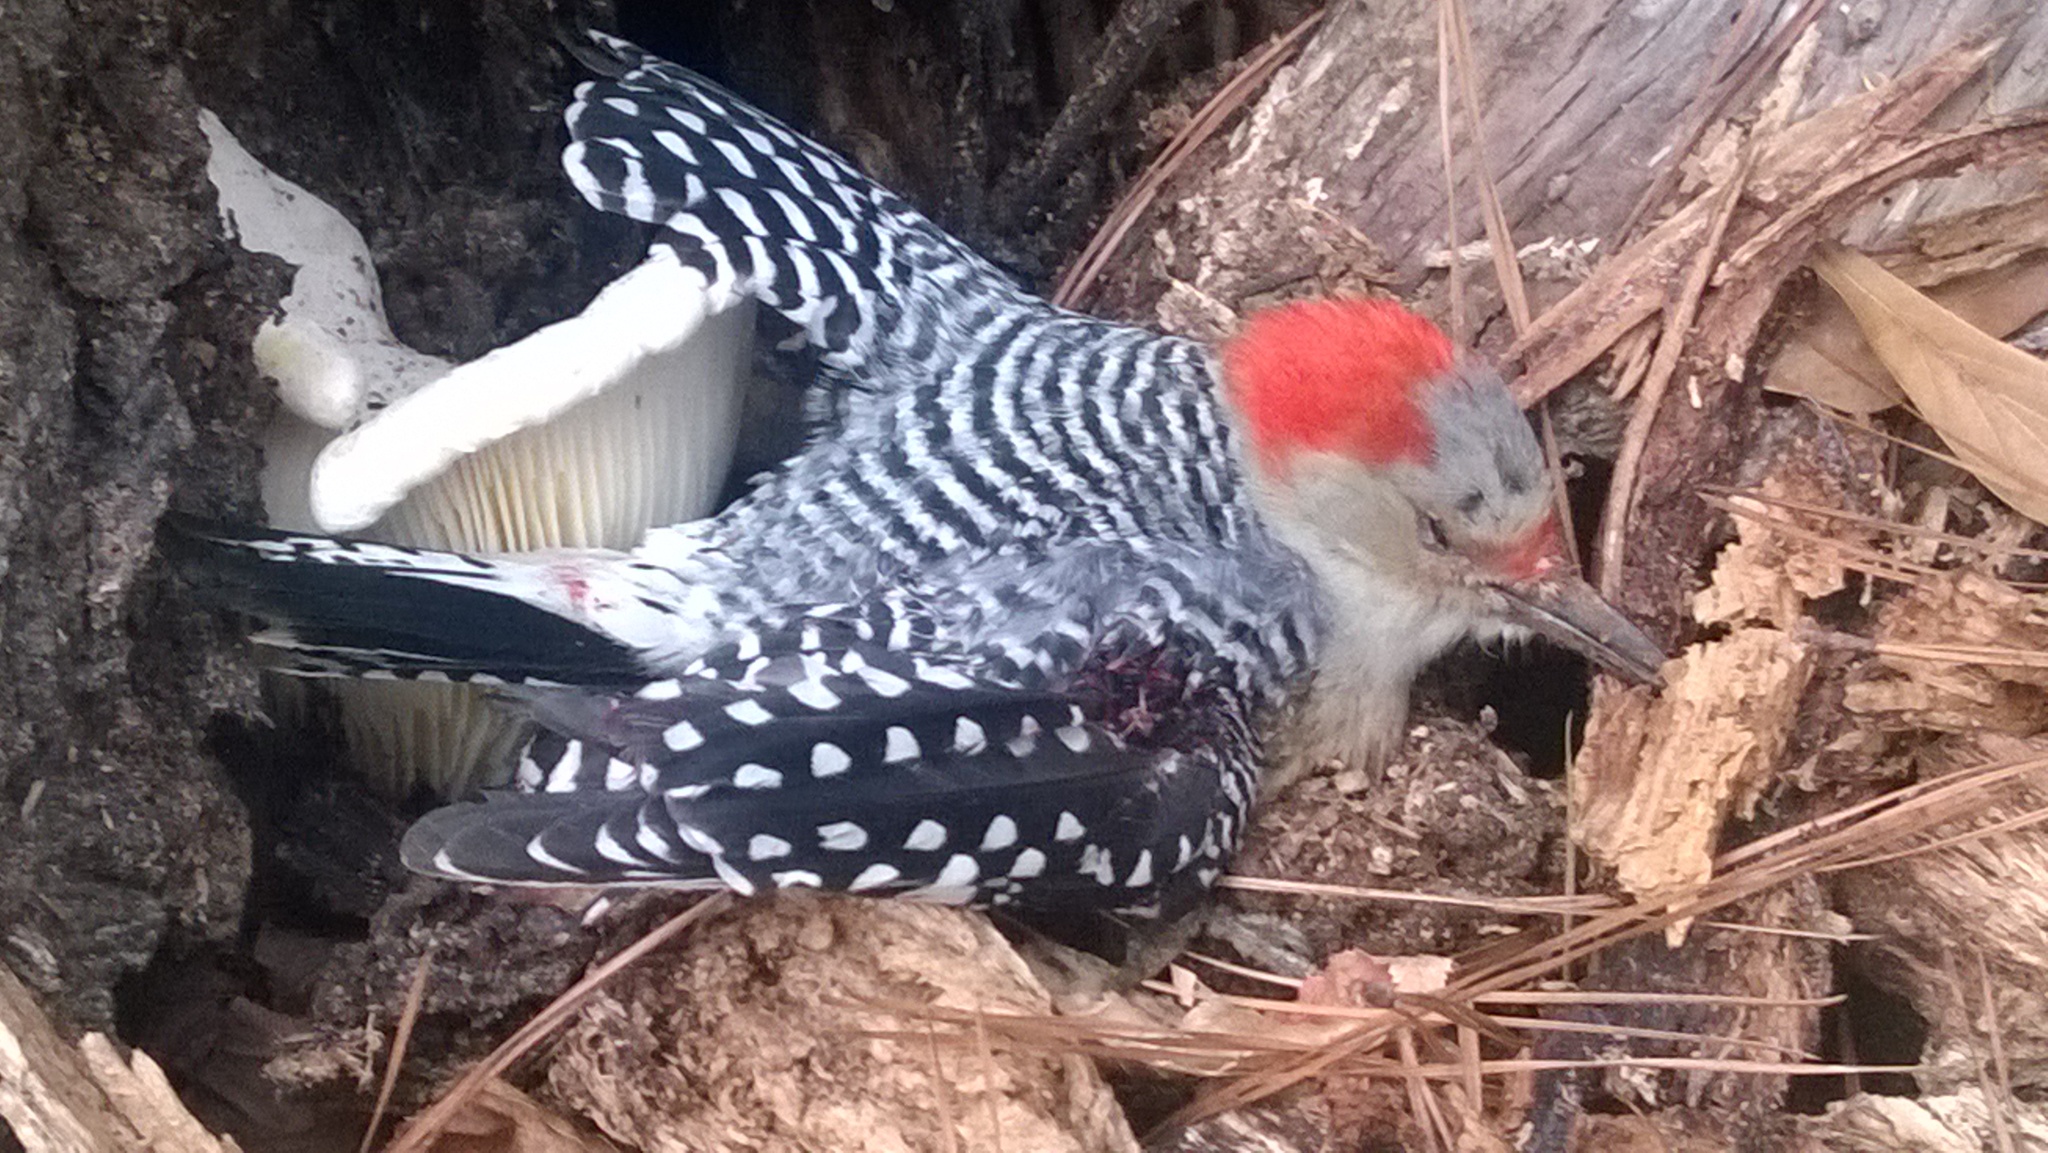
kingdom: Animalia
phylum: Chordata
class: Aves
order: Piciformes
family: Picidae
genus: Melanerpes
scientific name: Melanerpes carolinus
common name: Red-bellied woodpecker
